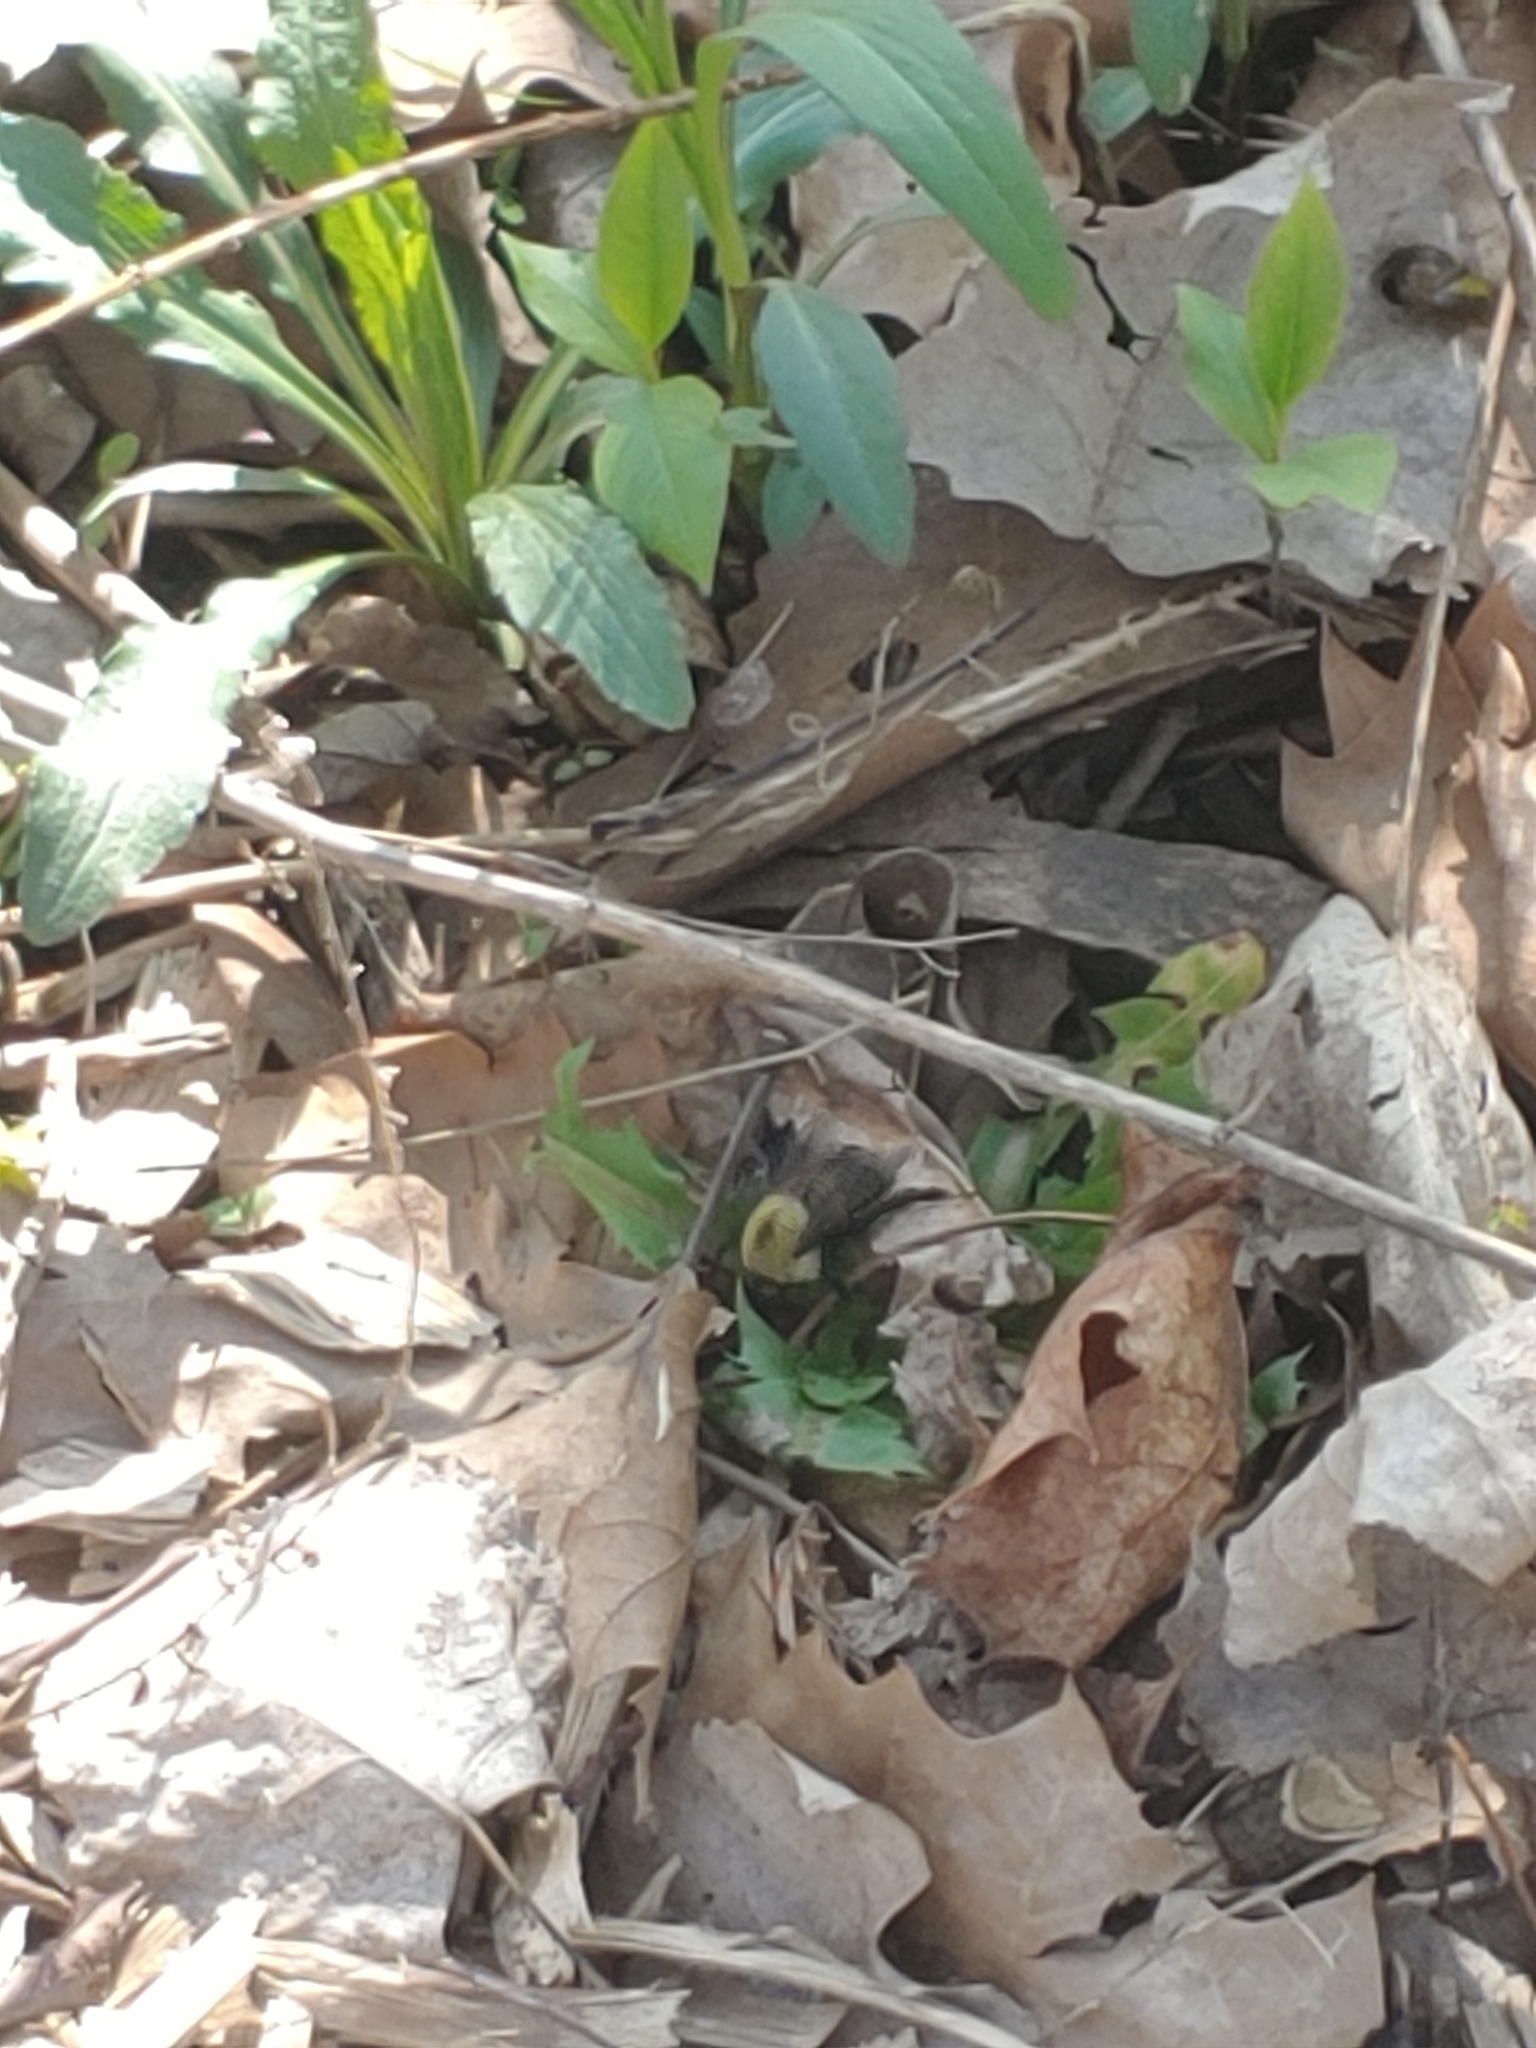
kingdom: Animalia
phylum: Arthropoda
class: Insecta
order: Hymenoptera
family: Apidae
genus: Bombus
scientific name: Bombus griseocollis
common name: Brown-belted bumble bee
